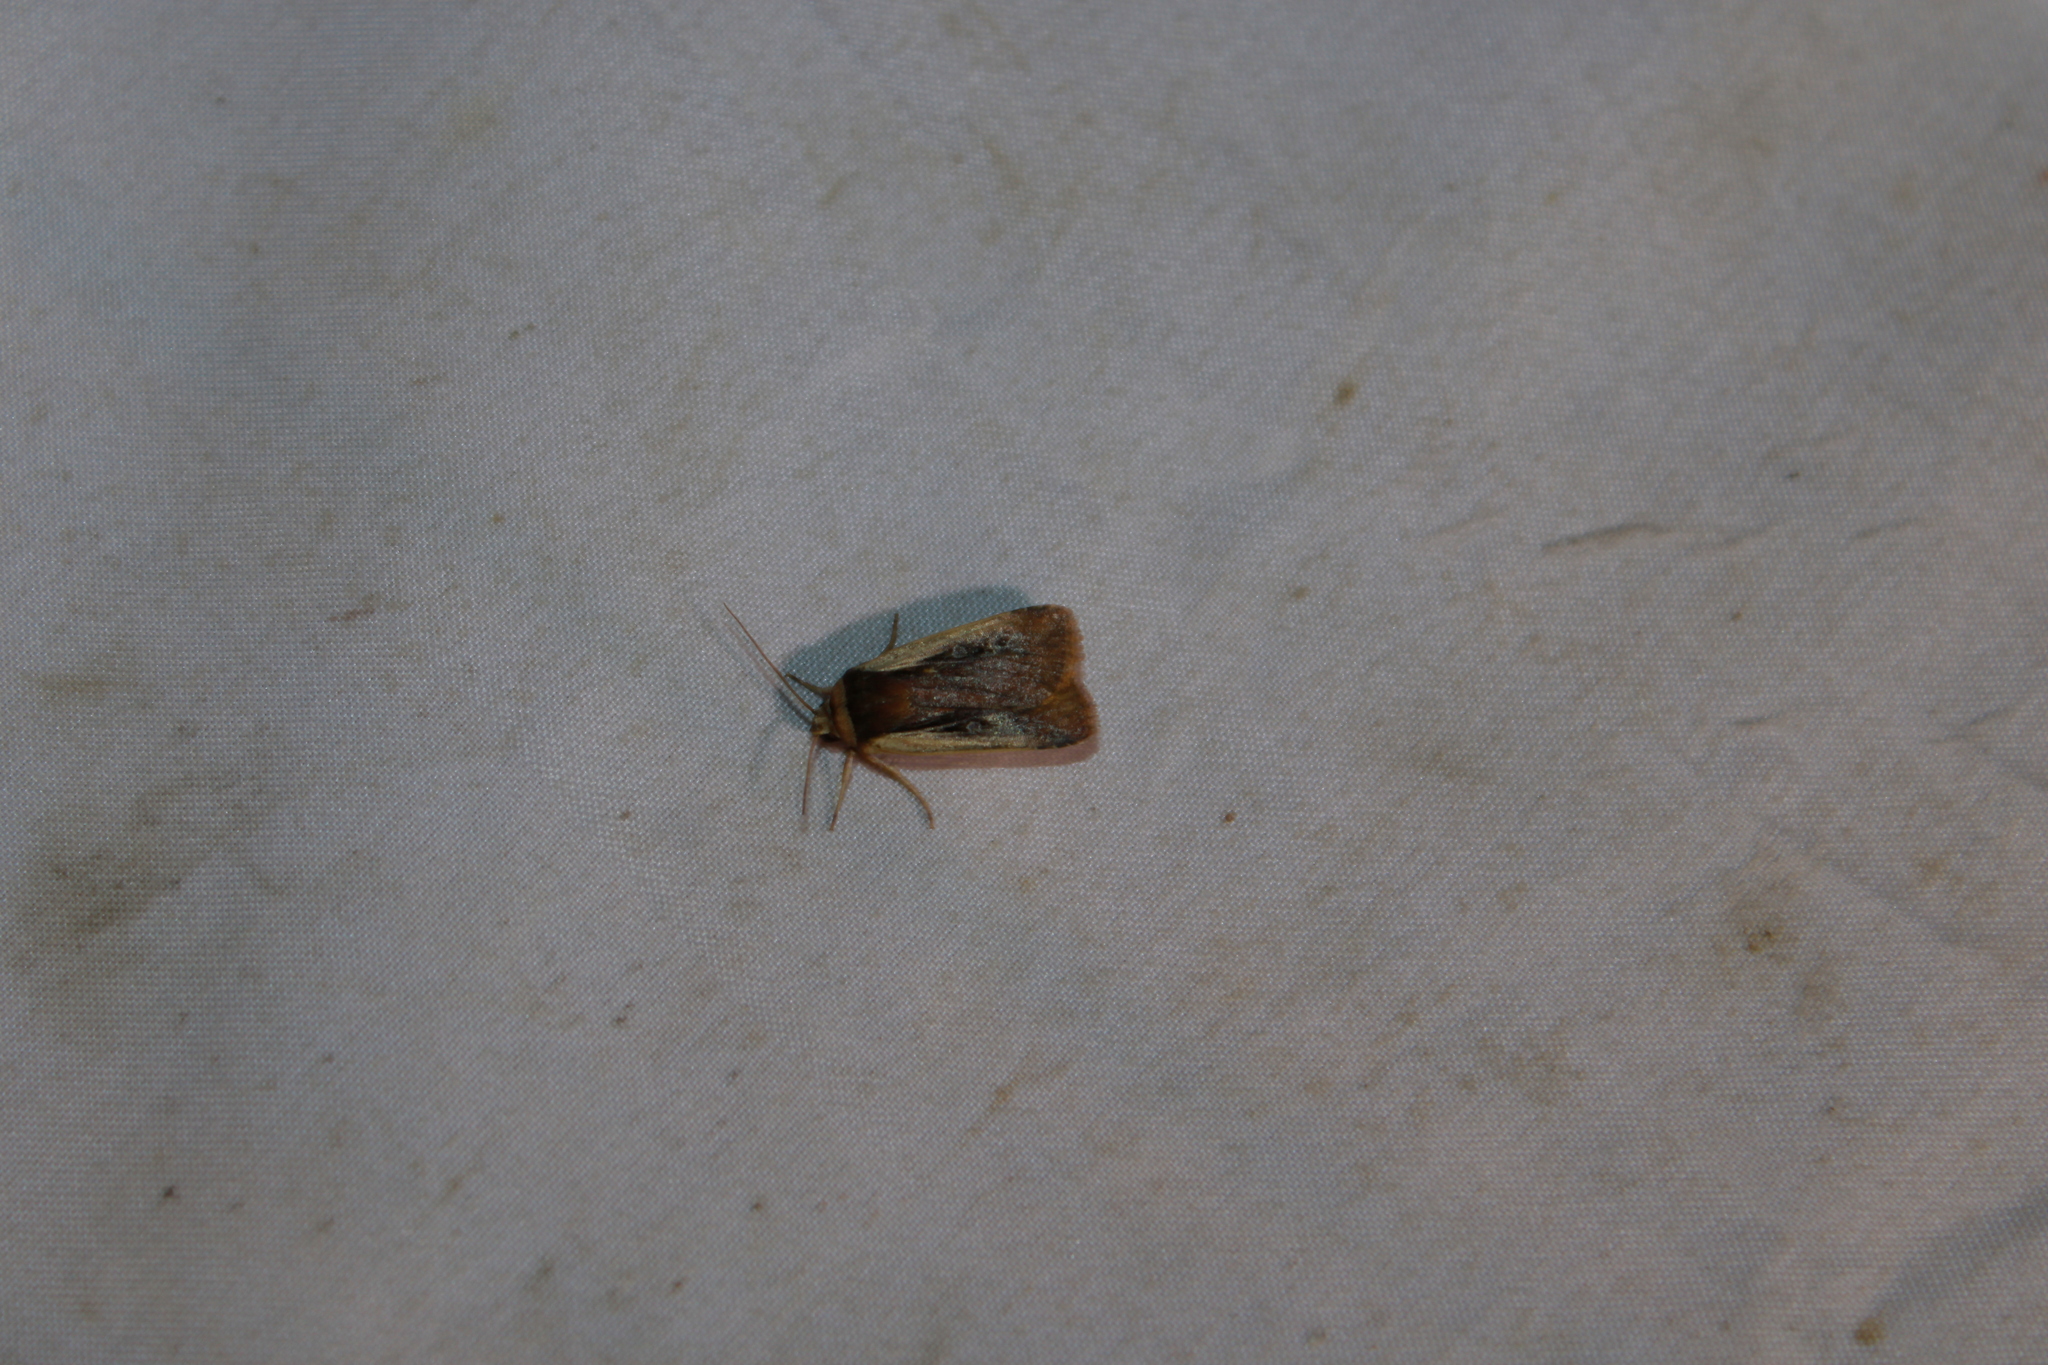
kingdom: Animalia
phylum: Arthropoda
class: Insecta
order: Lepidoptera
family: Noctuidae
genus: Ochropleura
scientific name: Ochropleura implecta
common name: Flame-shouldered dart
